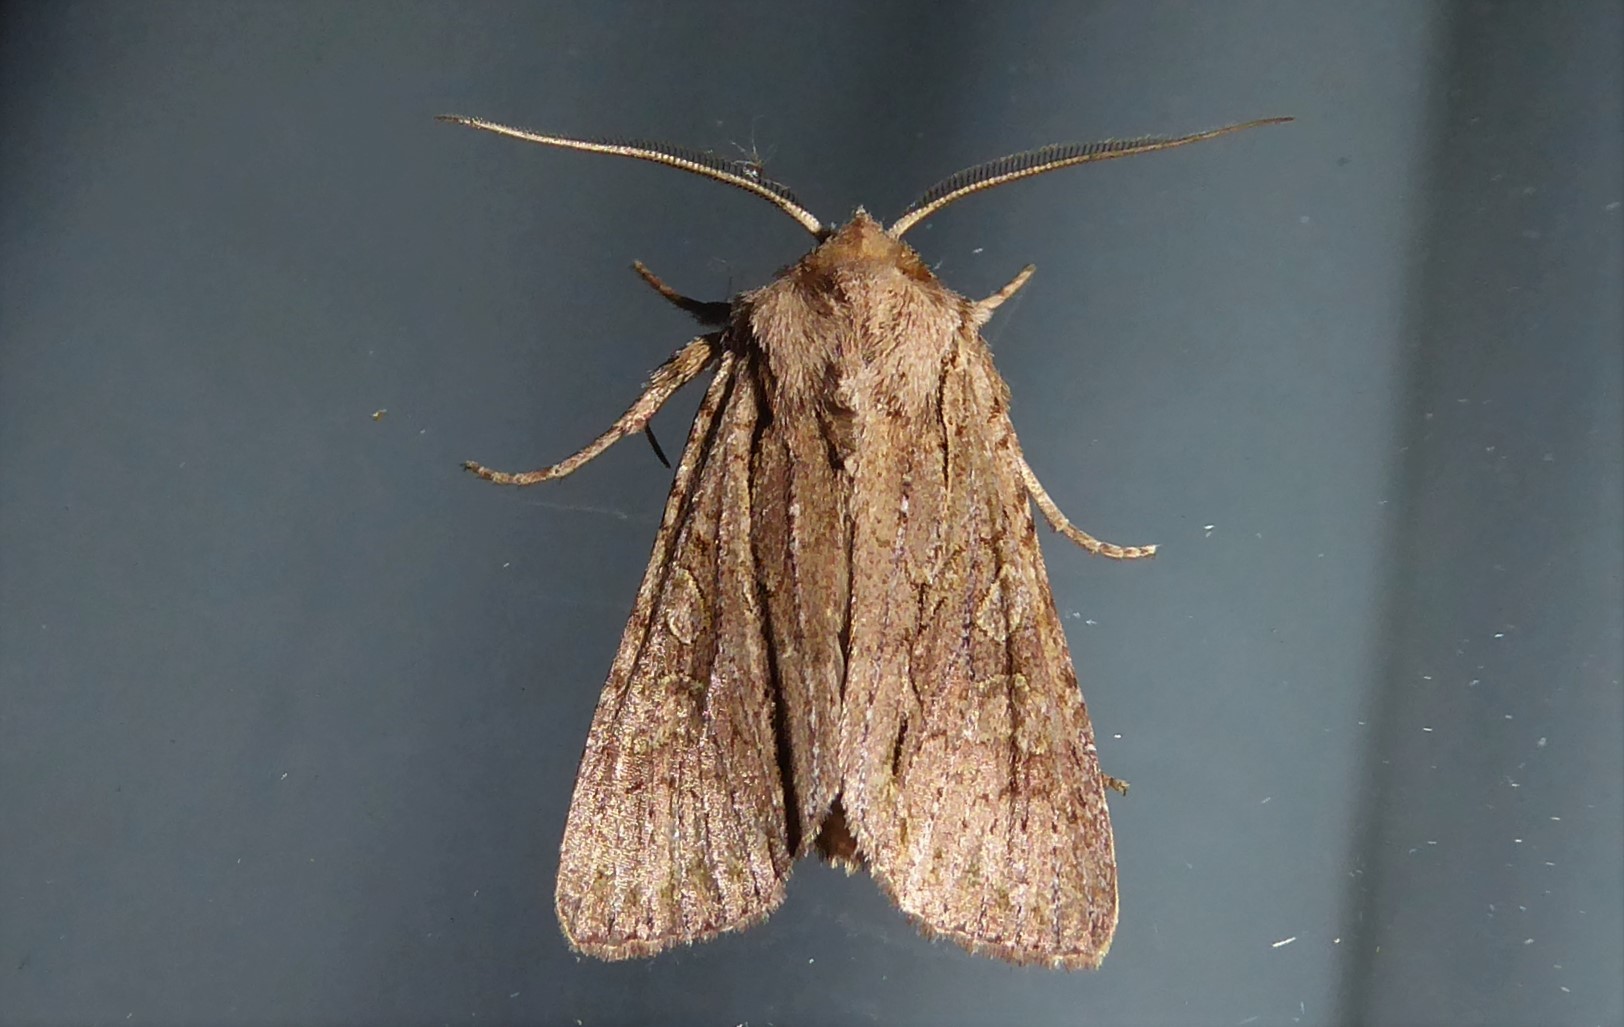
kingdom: Animalia
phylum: Arthropoda
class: Insecta
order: Lepidoptera
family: Noctuidae
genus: Ichneutica
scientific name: Ichneutica
